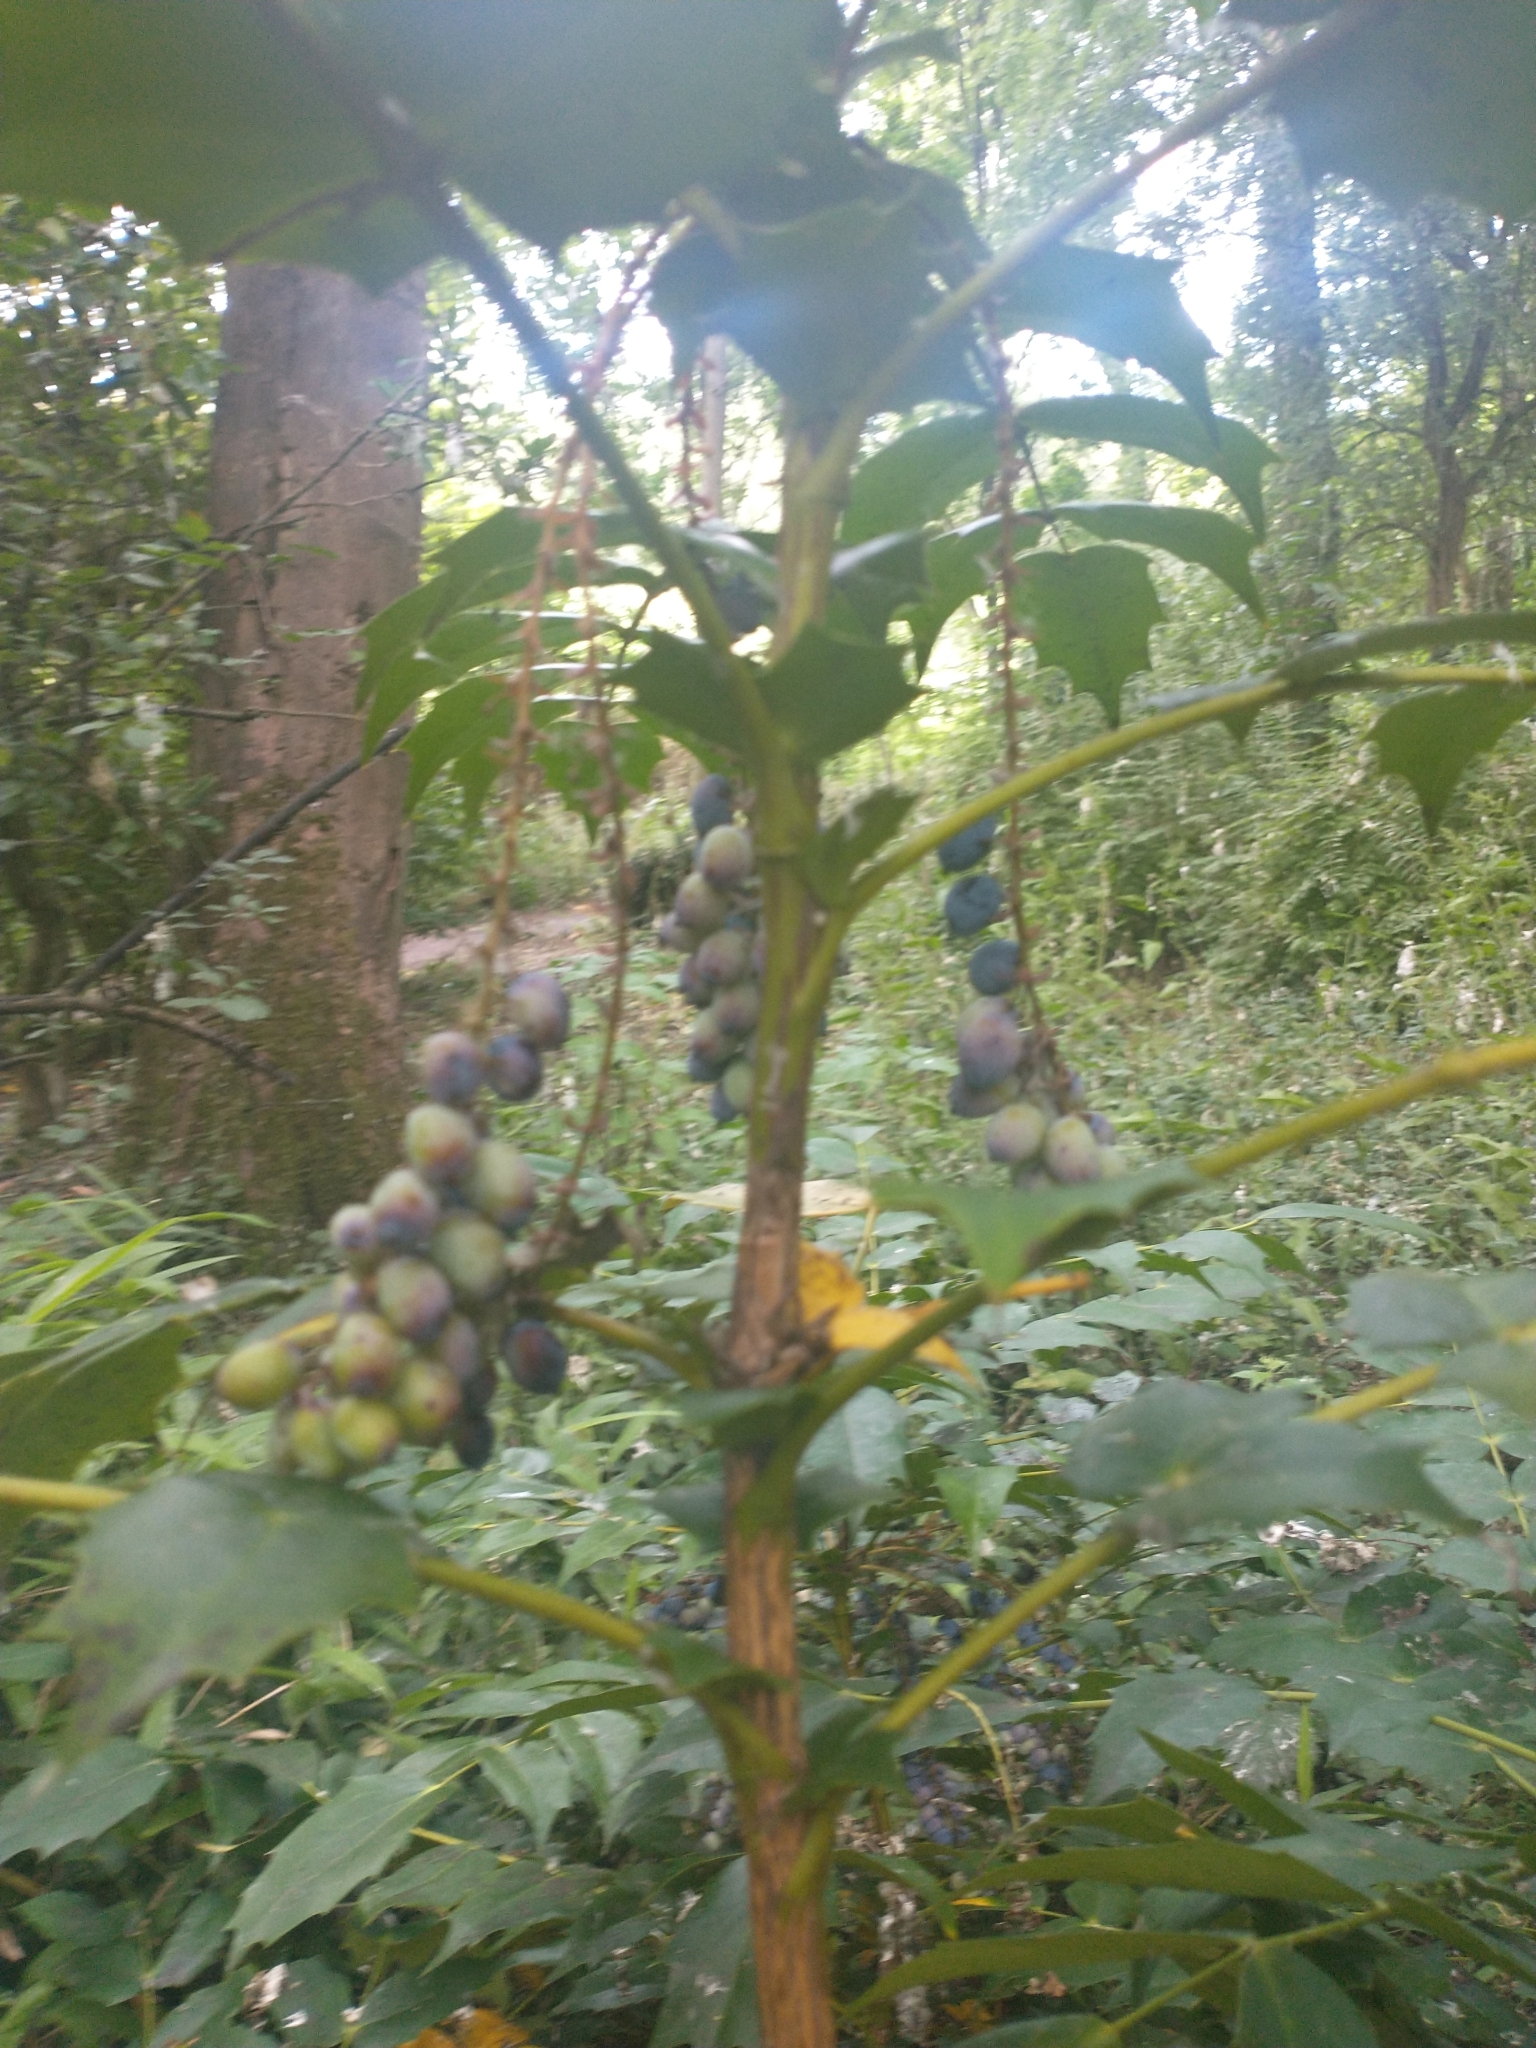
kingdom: Plantae
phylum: Tracheophyta
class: Magnoliopsida
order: Ranunculales
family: Berberidaceae
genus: Berberis
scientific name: Berberis hortensis
